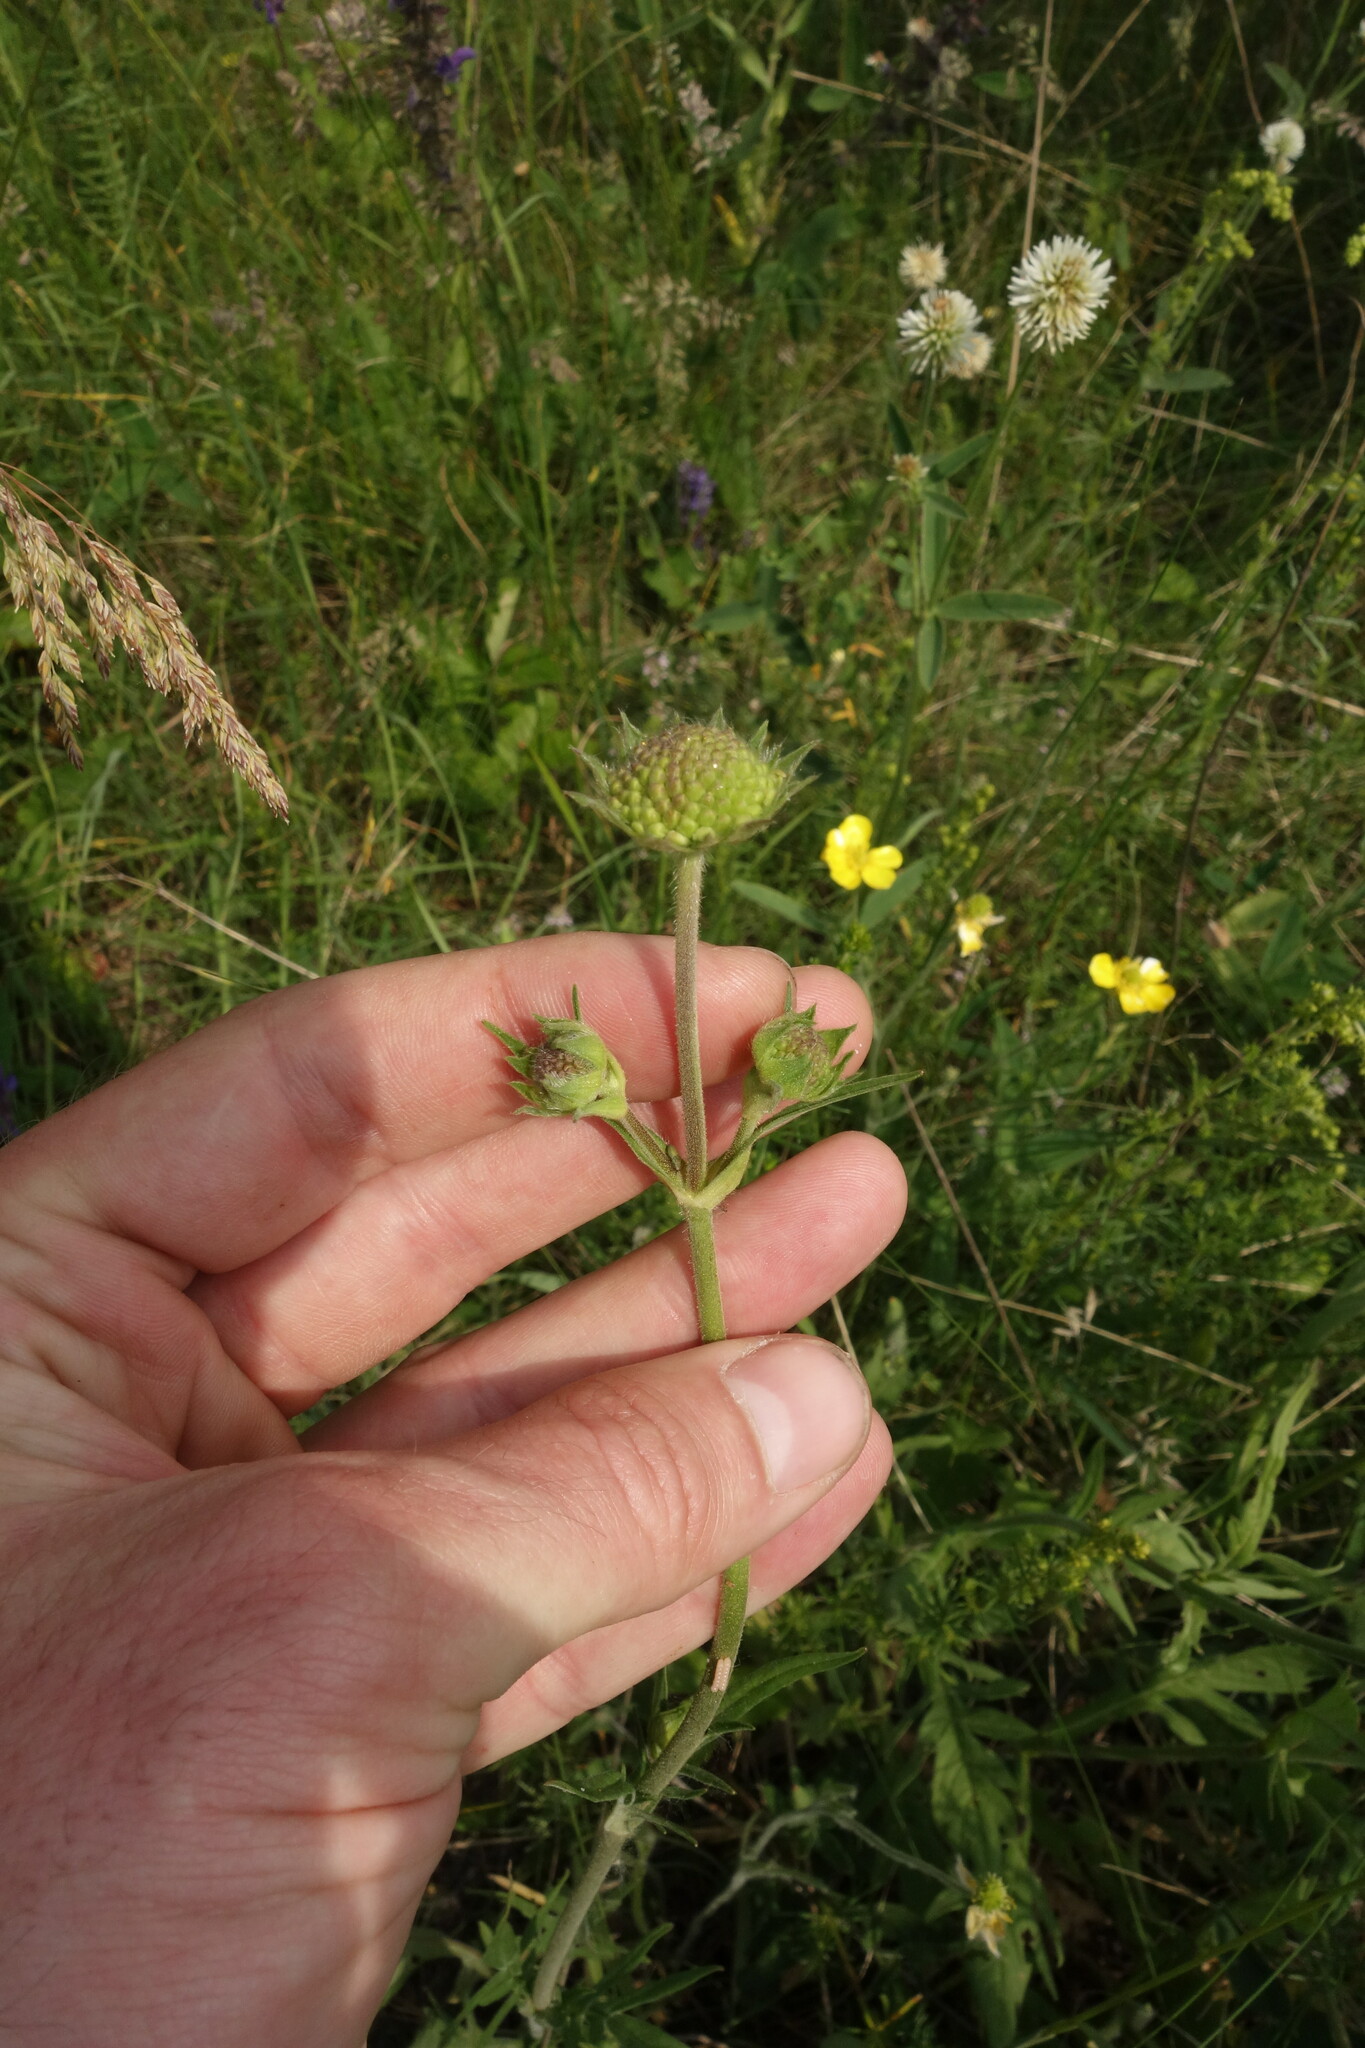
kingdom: Plantae
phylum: Tracheophyta
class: Magnoliopsida
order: Dipsacales
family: Caprifoliaceae
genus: Knautia
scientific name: Knautia arvensis
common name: Field scabiosa
